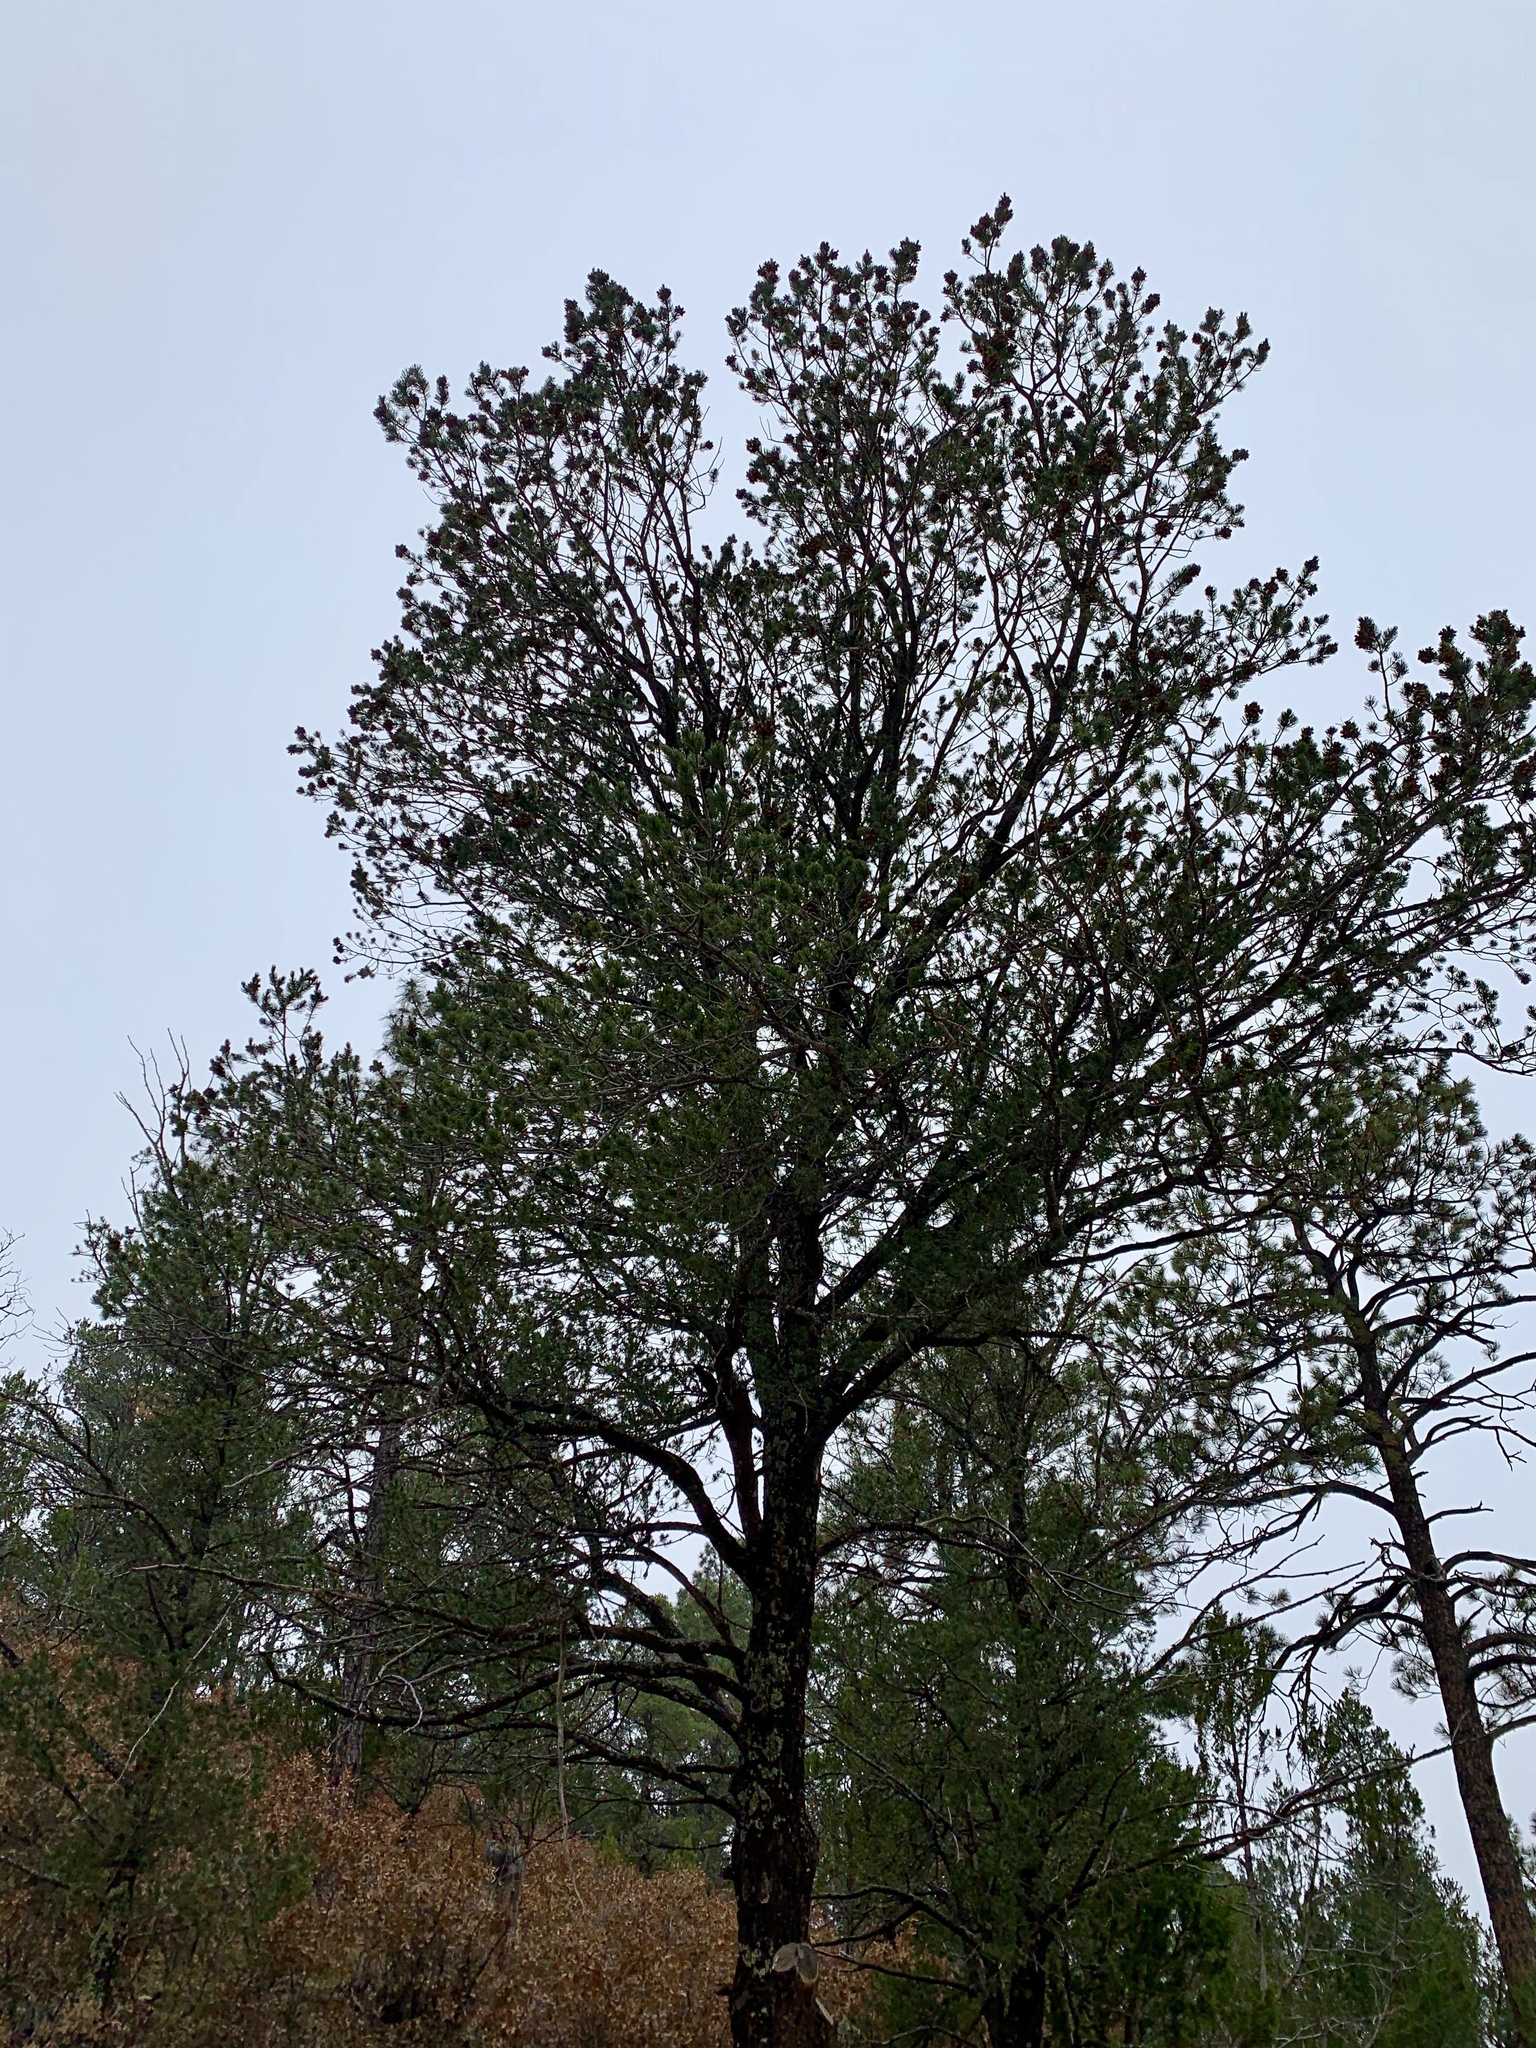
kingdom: Plantae
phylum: Tracheophyta
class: Pinopsida
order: Pinales
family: Pinaceae
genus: Pinus
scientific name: Pinus ponderosa
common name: Western yellow-pine
